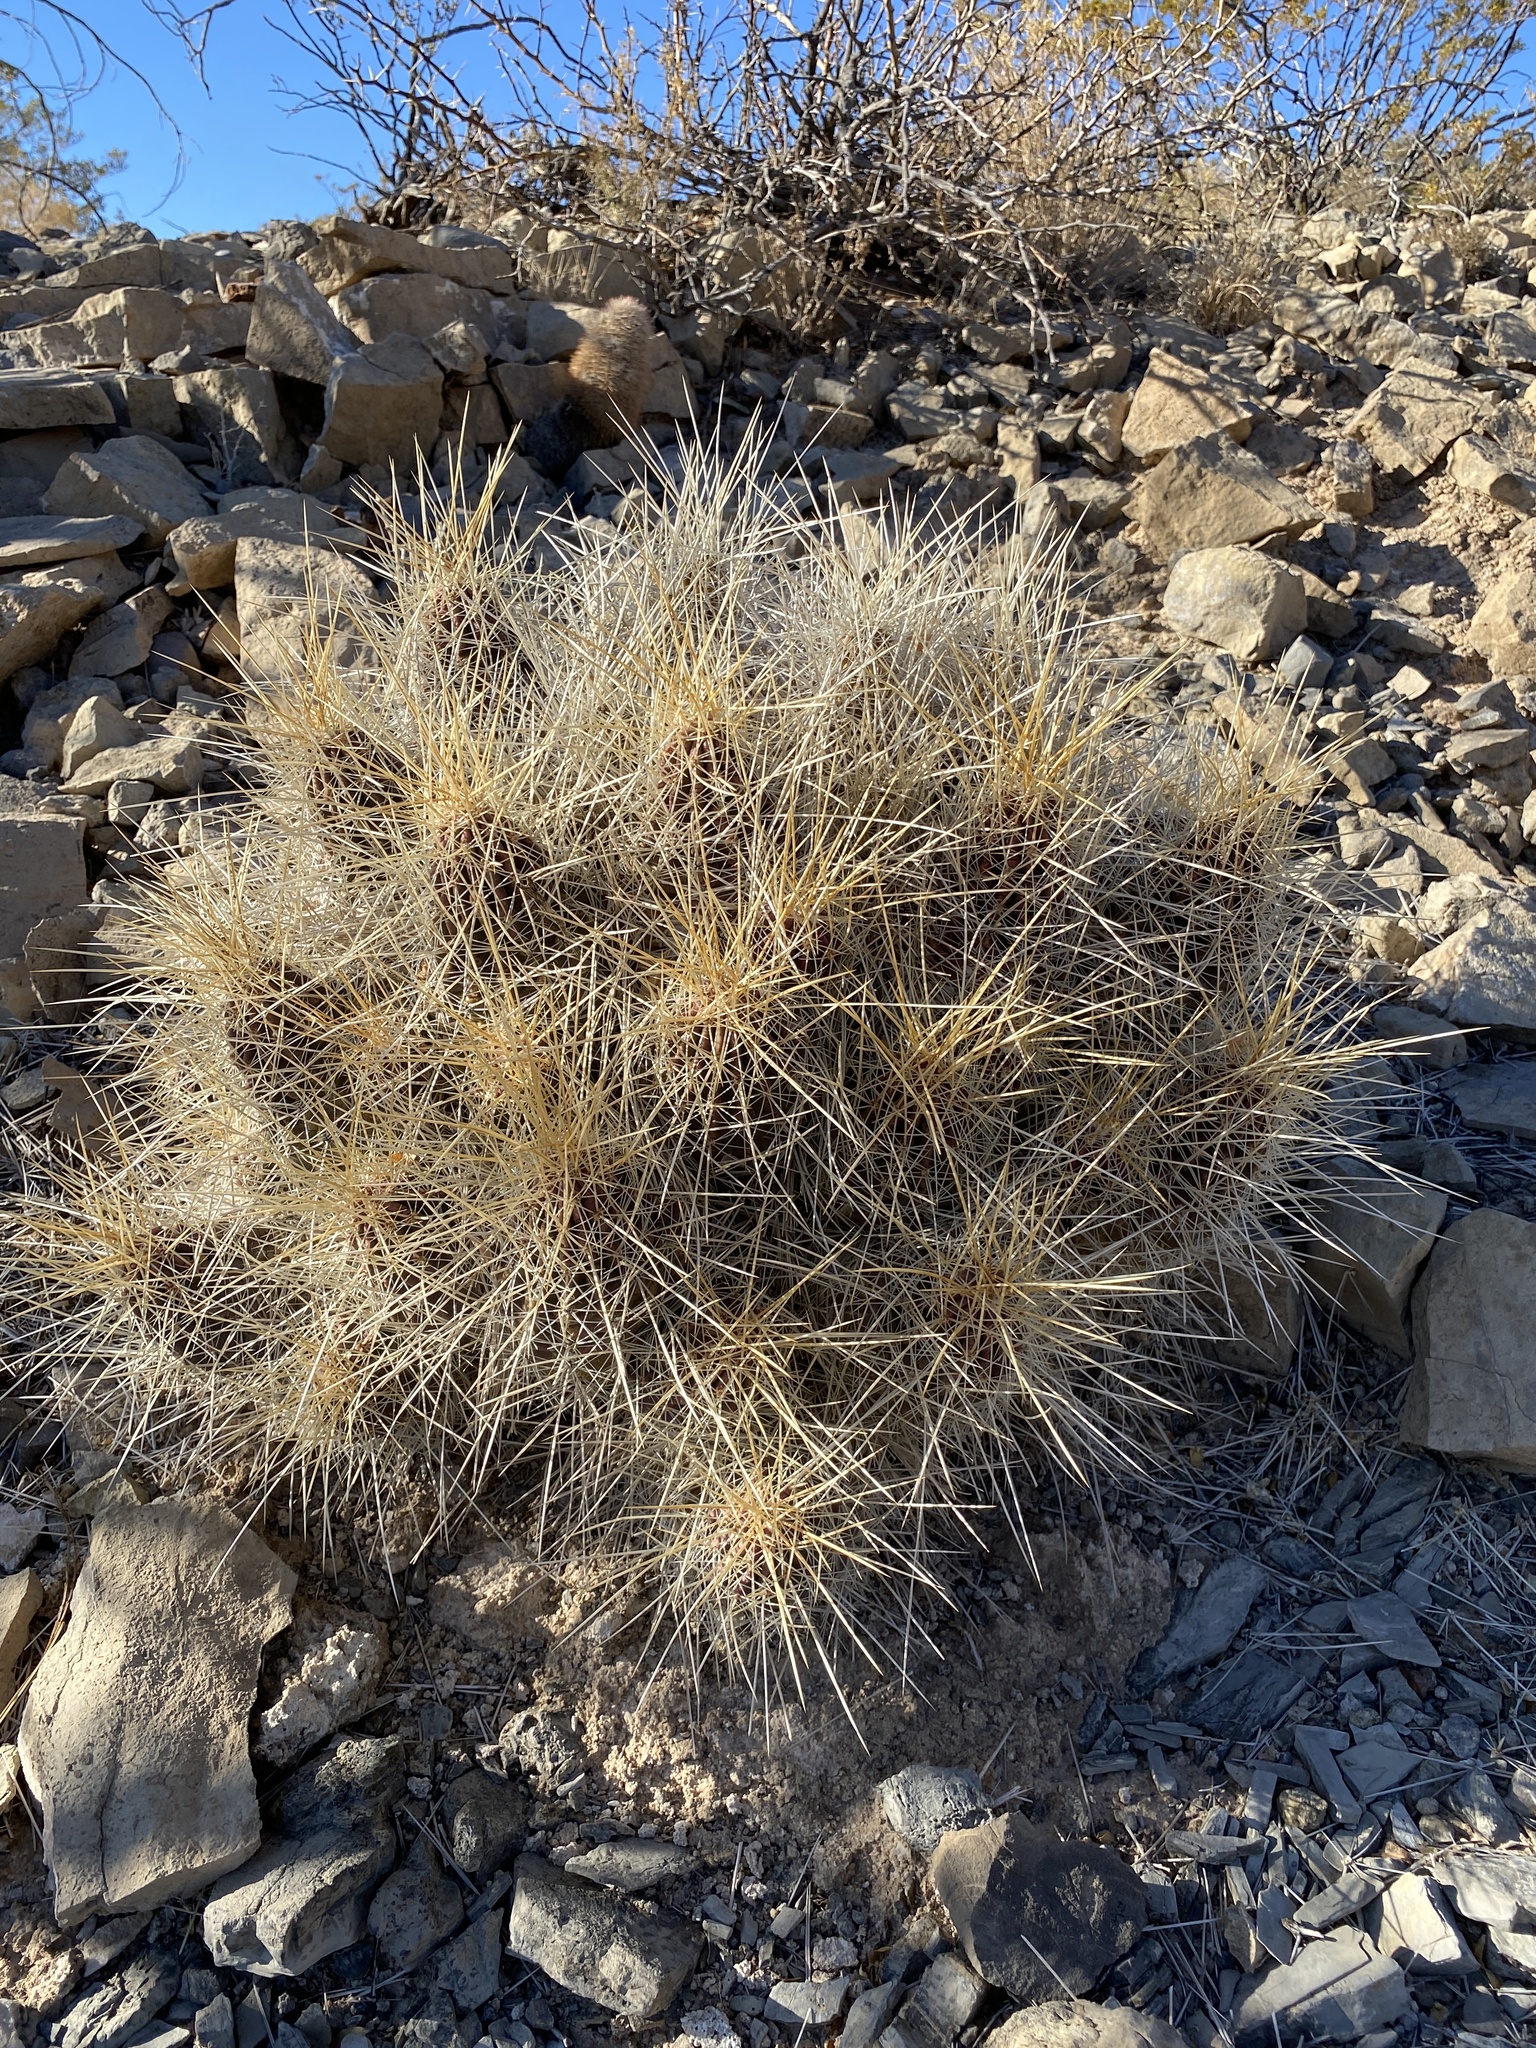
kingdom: Plantae
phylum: Tracheophyta
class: Magnoliopsida
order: Caryophyllales
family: Cactaceae
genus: Echinocereus
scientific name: Echinocereus stramineus
